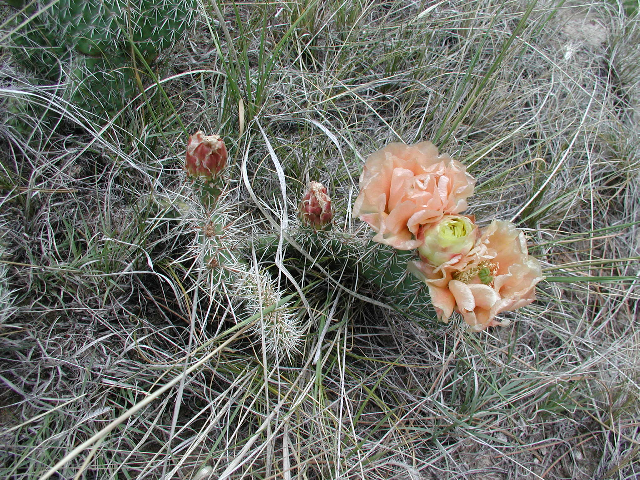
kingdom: Plantae
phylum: Tracheophyta
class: Magnoliopsida
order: Caryophyllales
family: Cactaceae
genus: Opuntia
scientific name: Opuntia polyacantha
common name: Plains prickly-pear
